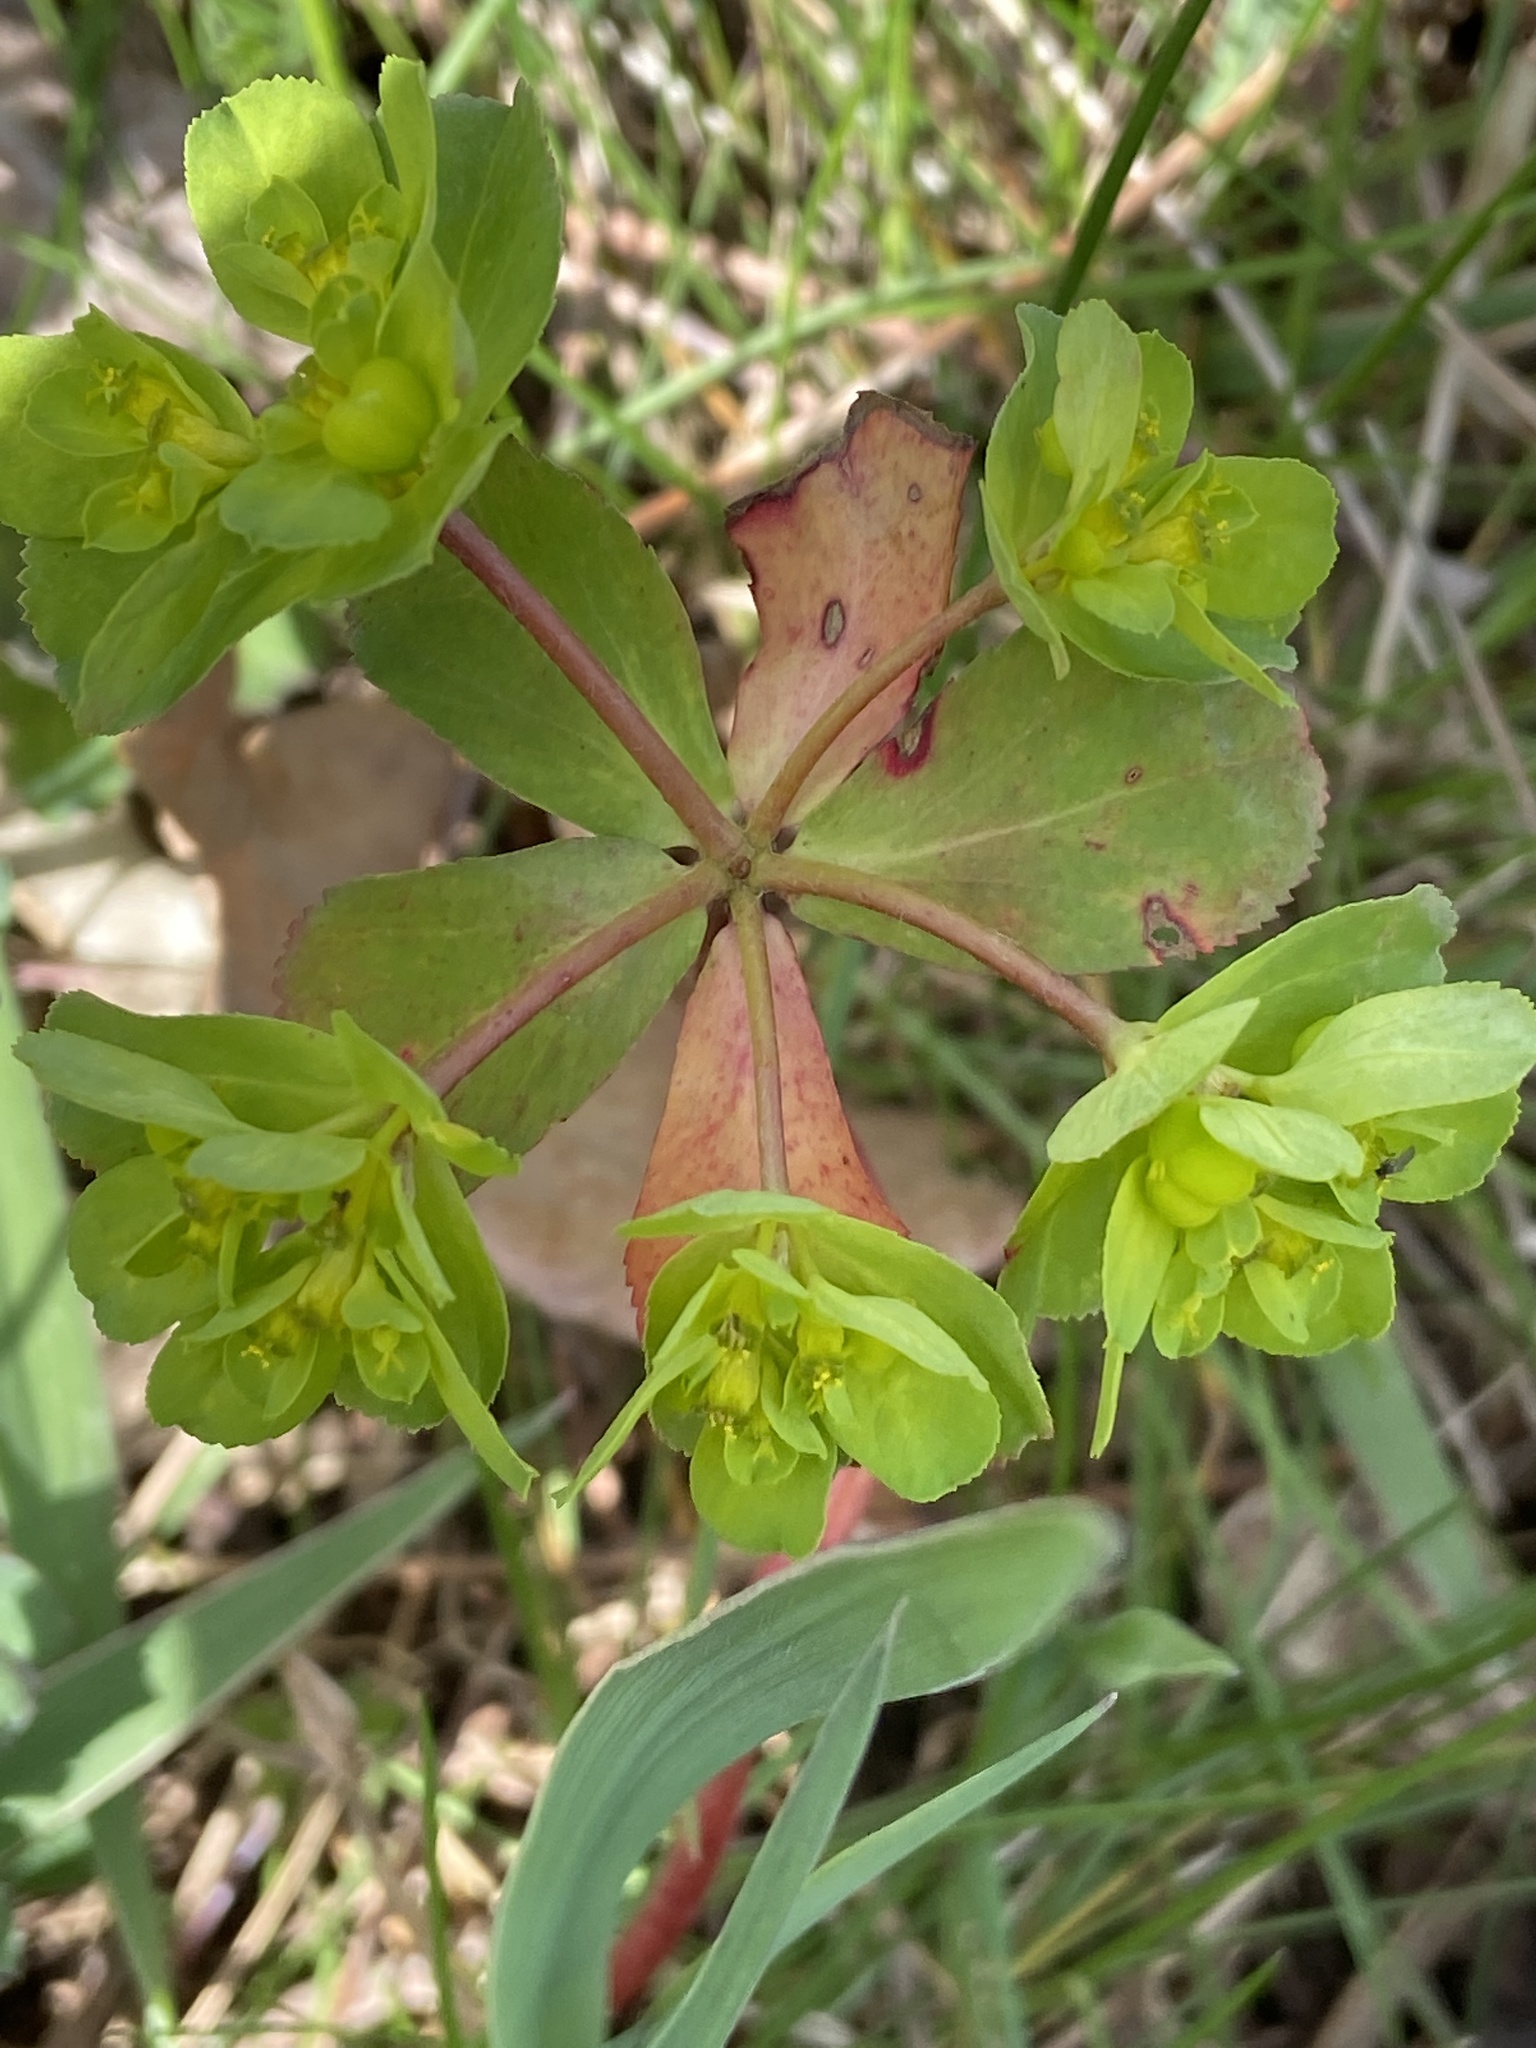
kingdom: Plantae
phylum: Tracheophyta
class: Magnoliopsida
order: Malpighiales
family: Euphorbiaceae
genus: Euphorbia
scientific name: Euphorbia helioscopia
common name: Sun spurge
